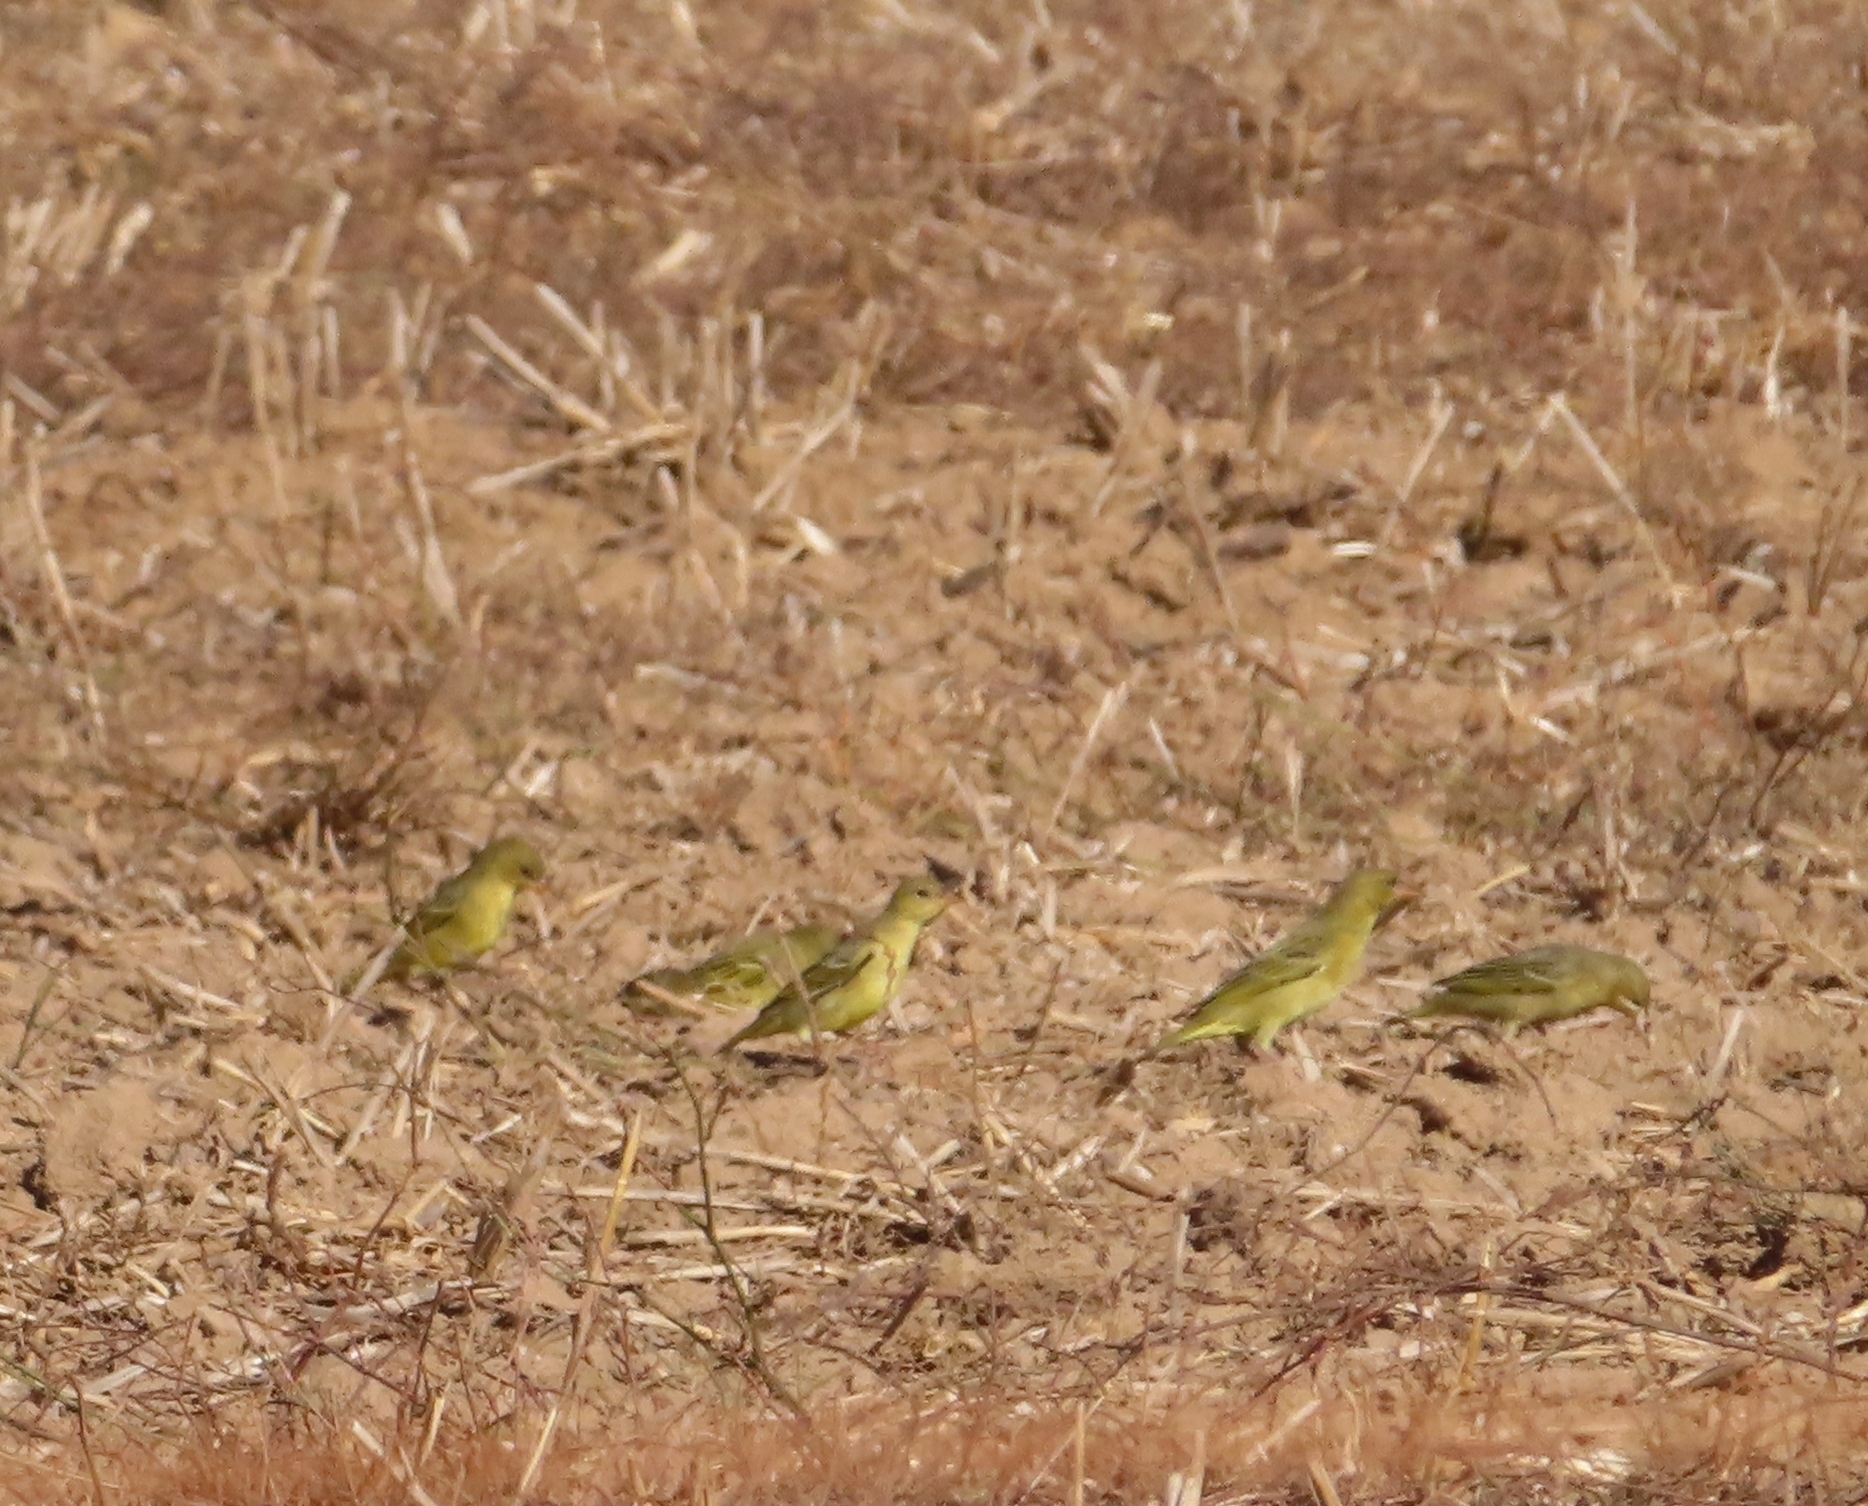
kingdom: Animalia
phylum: Chordata
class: Aves
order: Passeriformes
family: Ploceidae
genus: Ploceus
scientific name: Ploceus capensis
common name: Cape weaver
